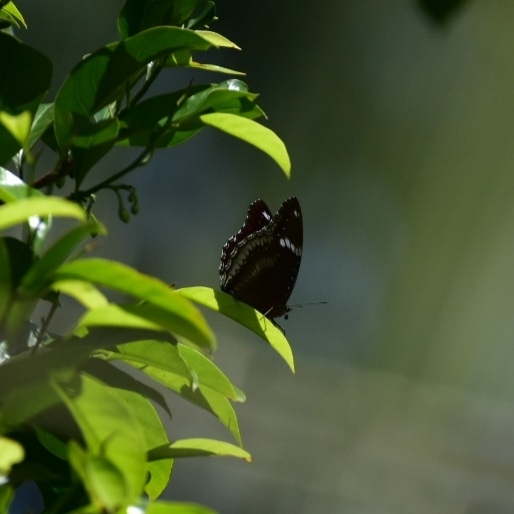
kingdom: Animalia
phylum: Arthropoda
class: Insecta
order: Lepidoptera
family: Nymphalidae
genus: Hypolimnas
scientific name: Hypolimnas bolina
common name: Great eggfly
